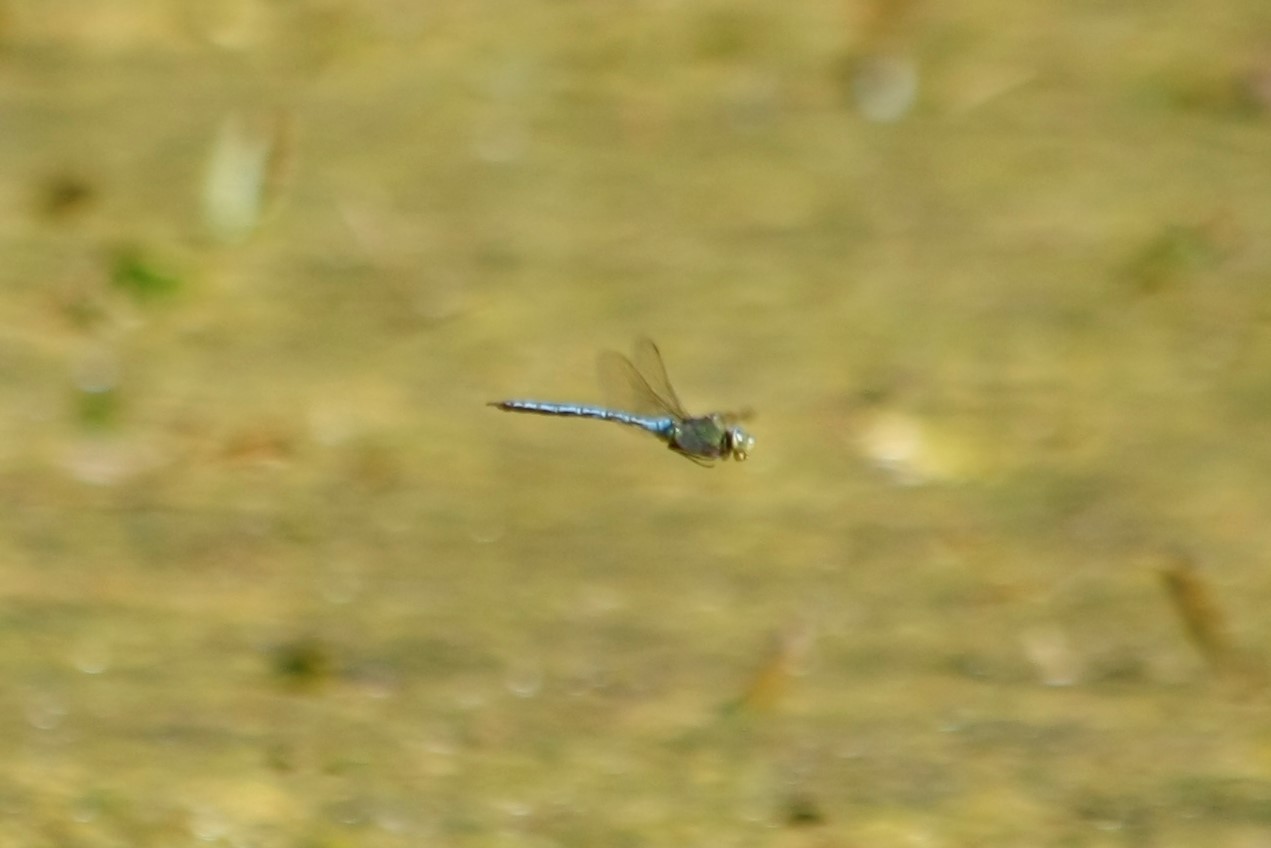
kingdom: Animalia
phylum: Arthropoda
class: Insecta
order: Odonata
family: Aeshnidae
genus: Anax
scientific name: Anax imperator
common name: Emperor dragonfly
